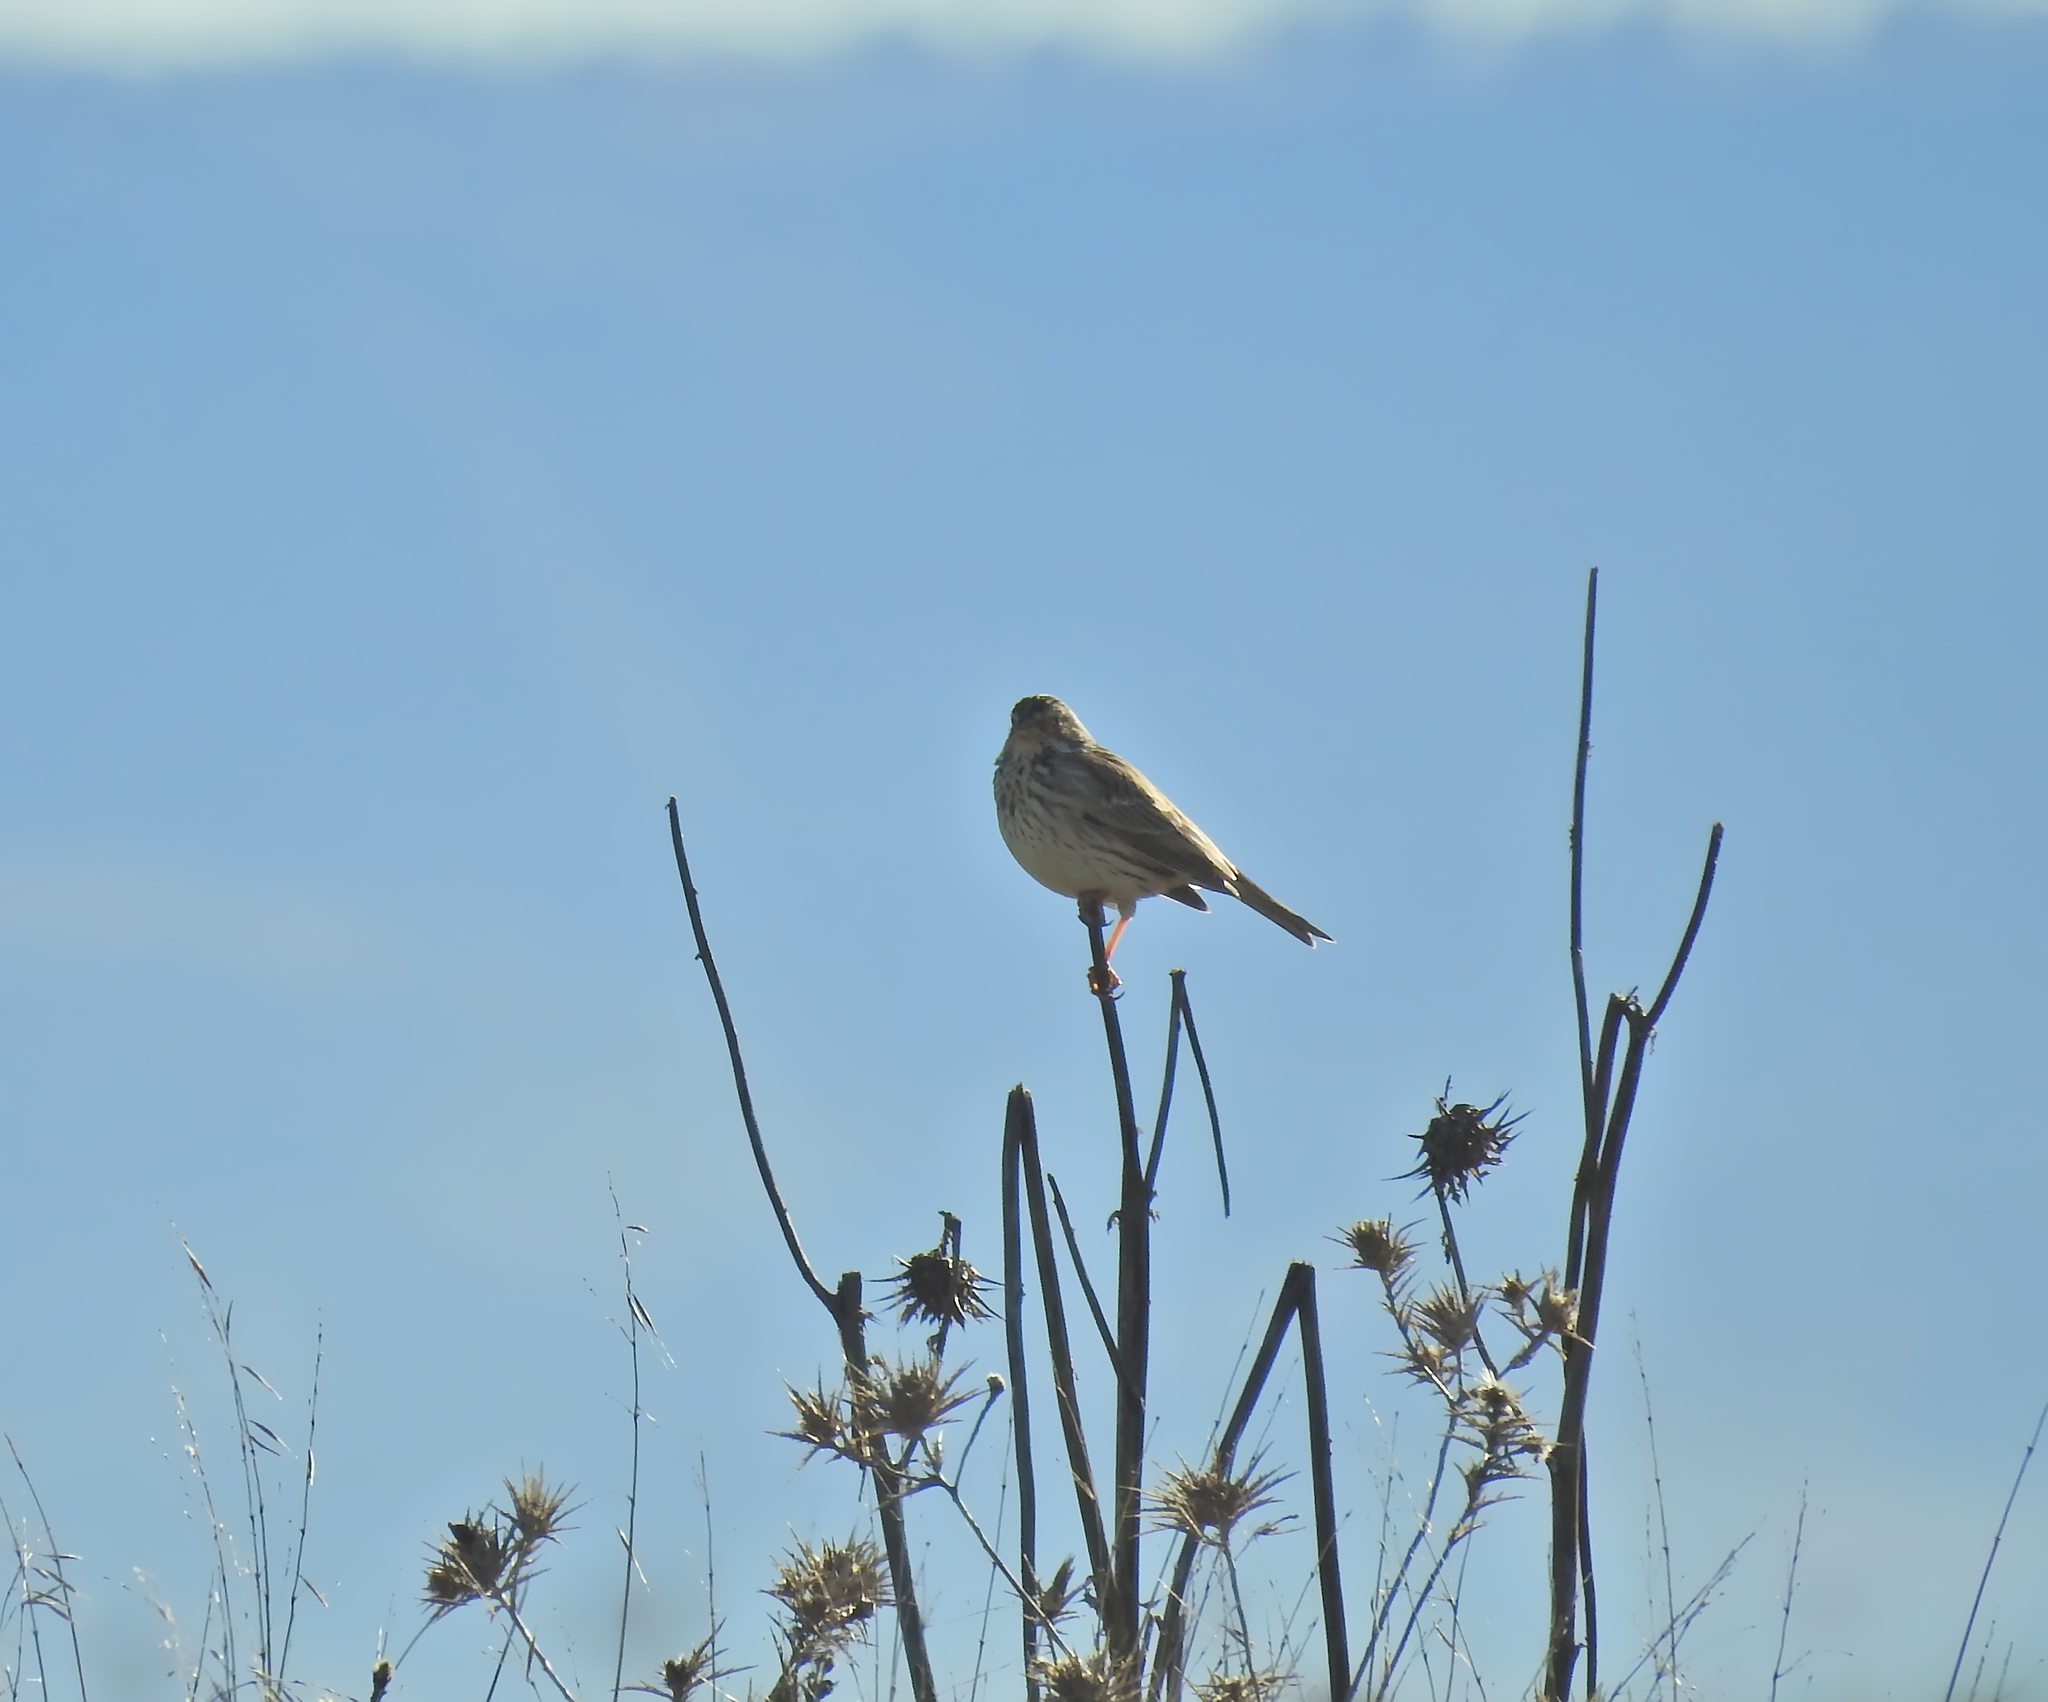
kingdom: Animalia
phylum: Chordata
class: Aves
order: Passeriformes
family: Emberizidae
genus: Emberiza
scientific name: Emberiza calandra
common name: Corn bunting
